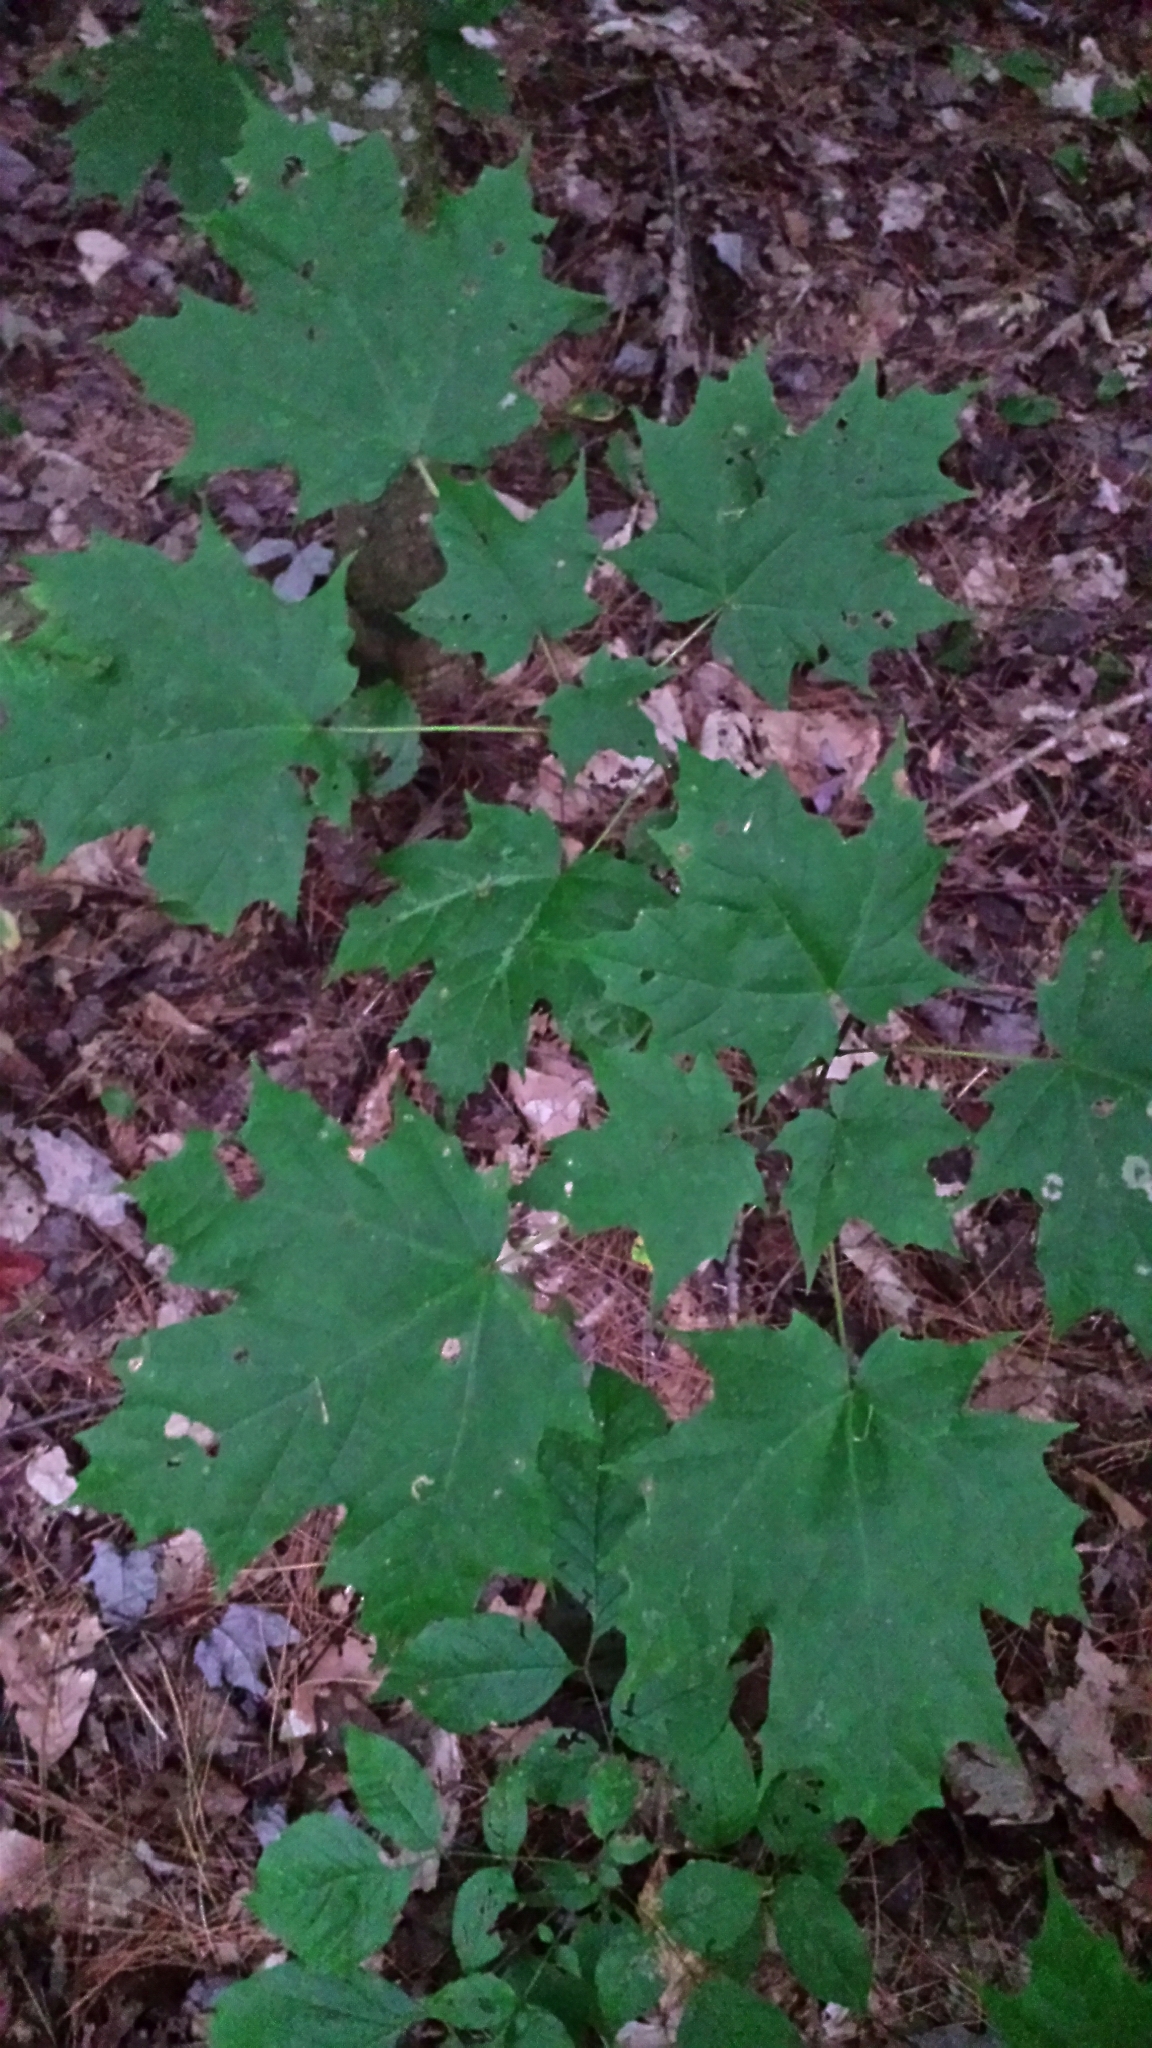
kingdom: Plantae
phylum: Tracheophyta
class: Magnoliopsida
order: Sapindales
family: Sapindaceae
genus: Acer
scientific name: Acer saccharum
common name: Sugar maple
